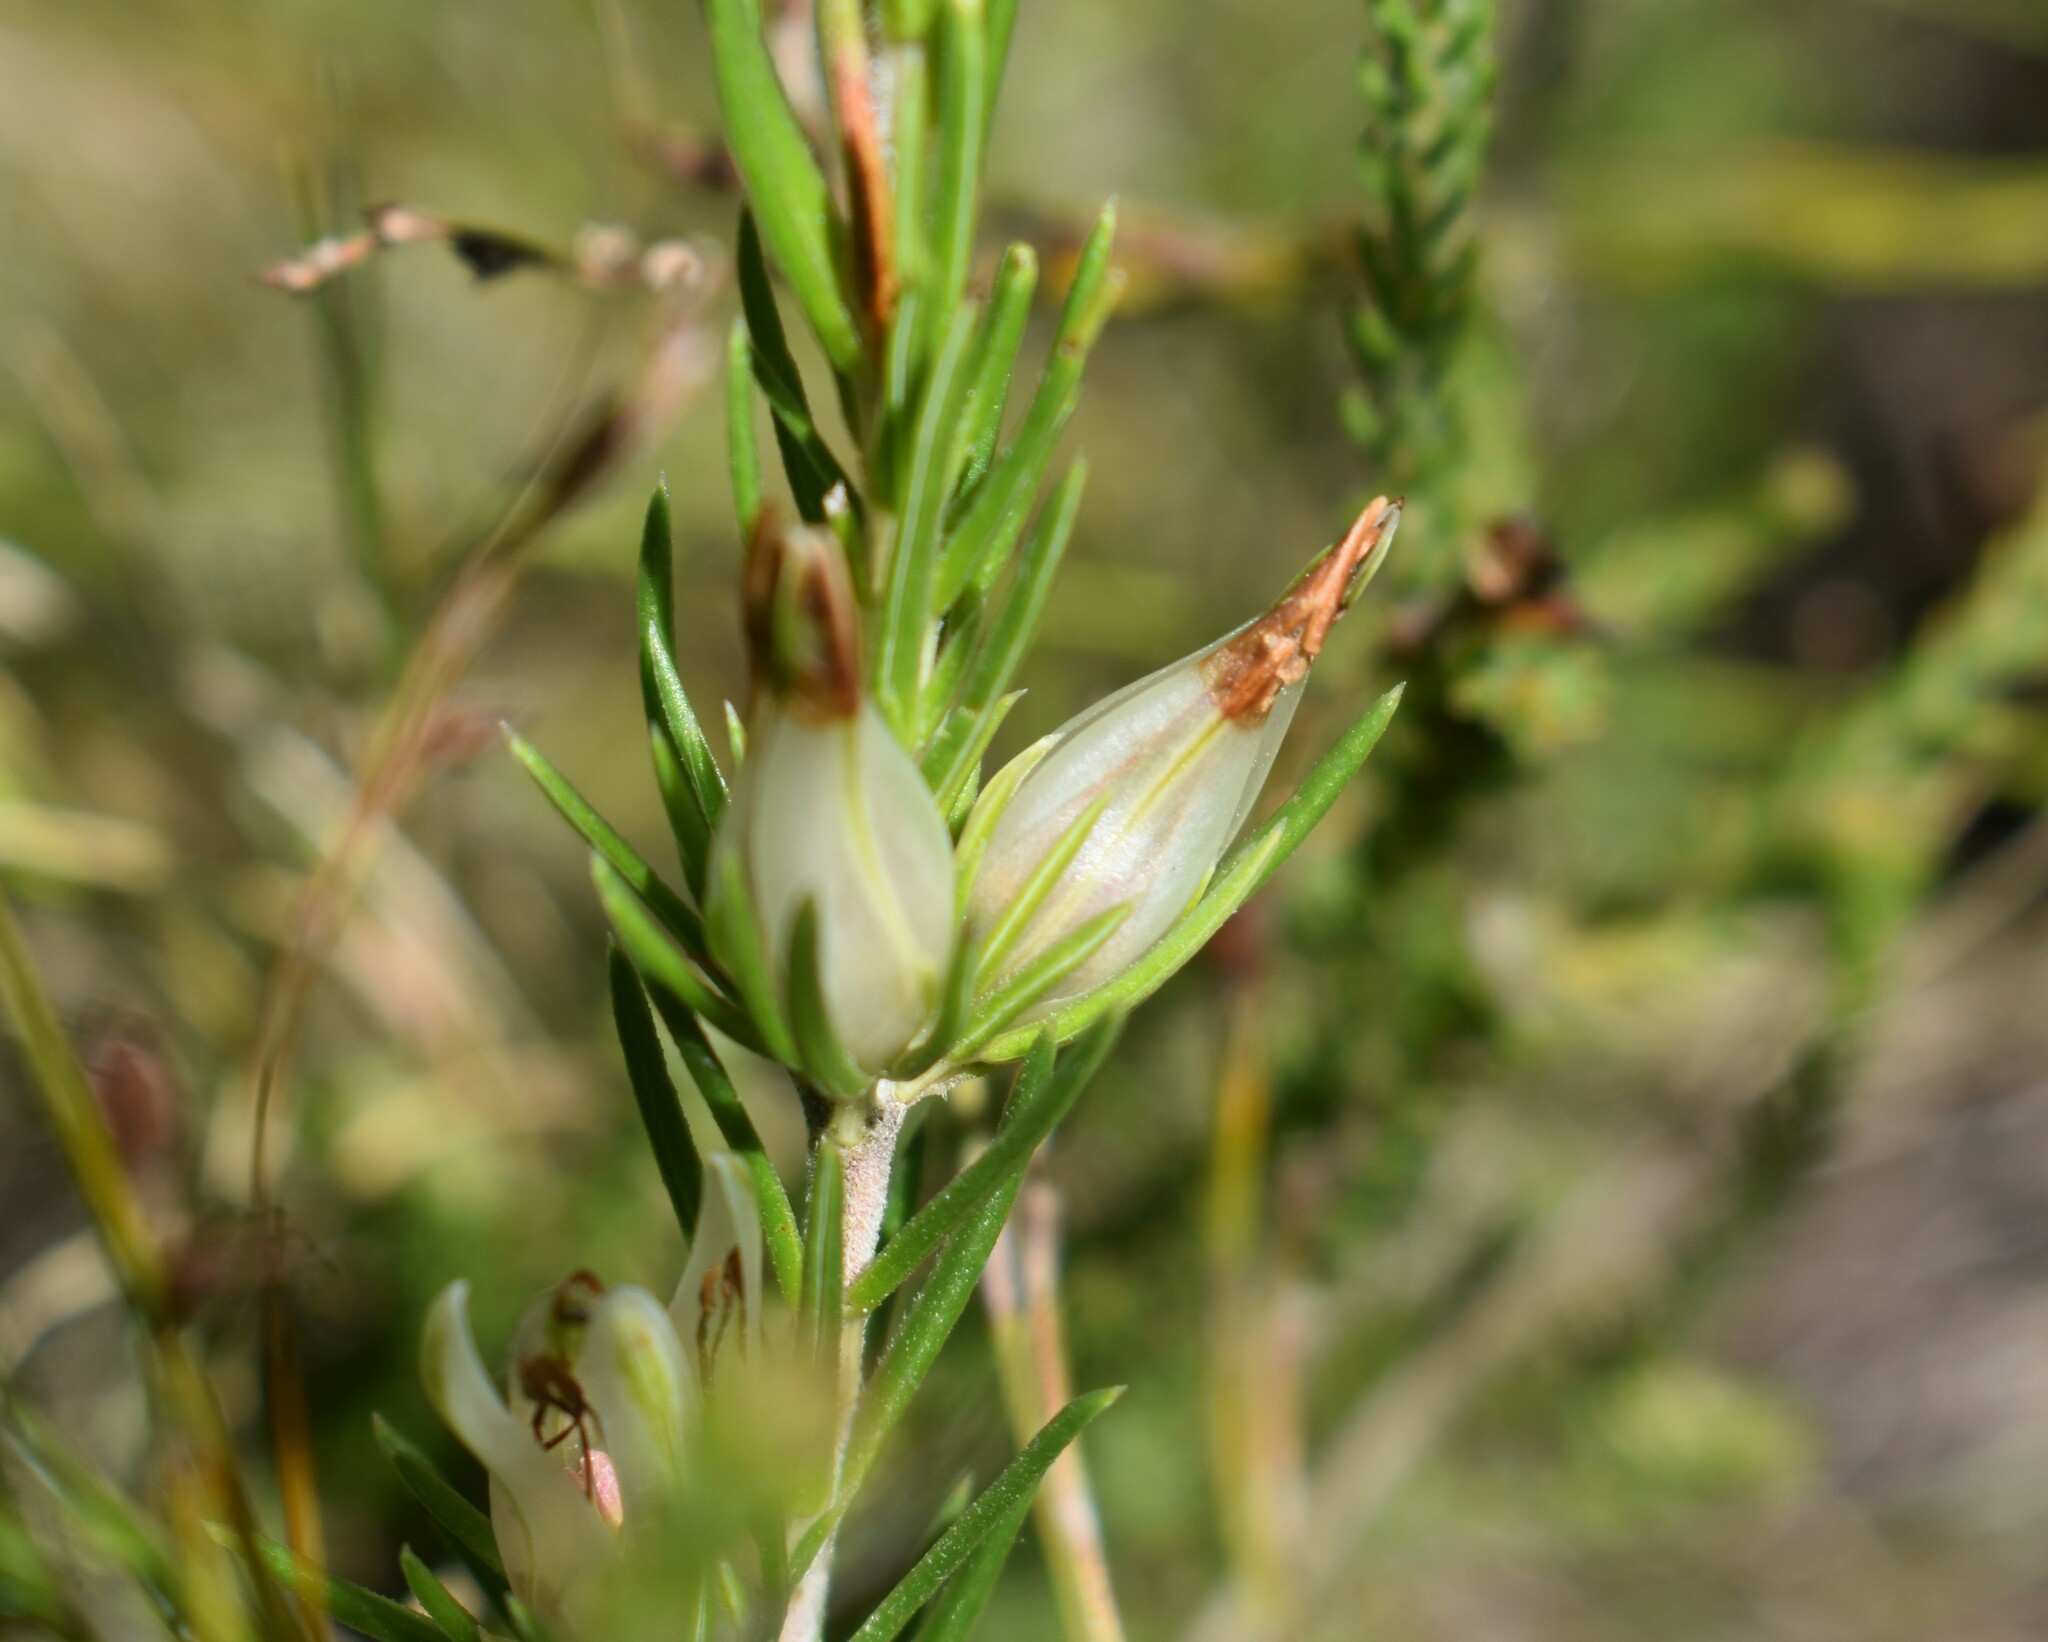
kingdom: Plantae
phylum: Tracheophyta
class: Magnoliopsida
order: Ericales
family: Ericaceae
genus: Erica
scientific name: Erica nabea
